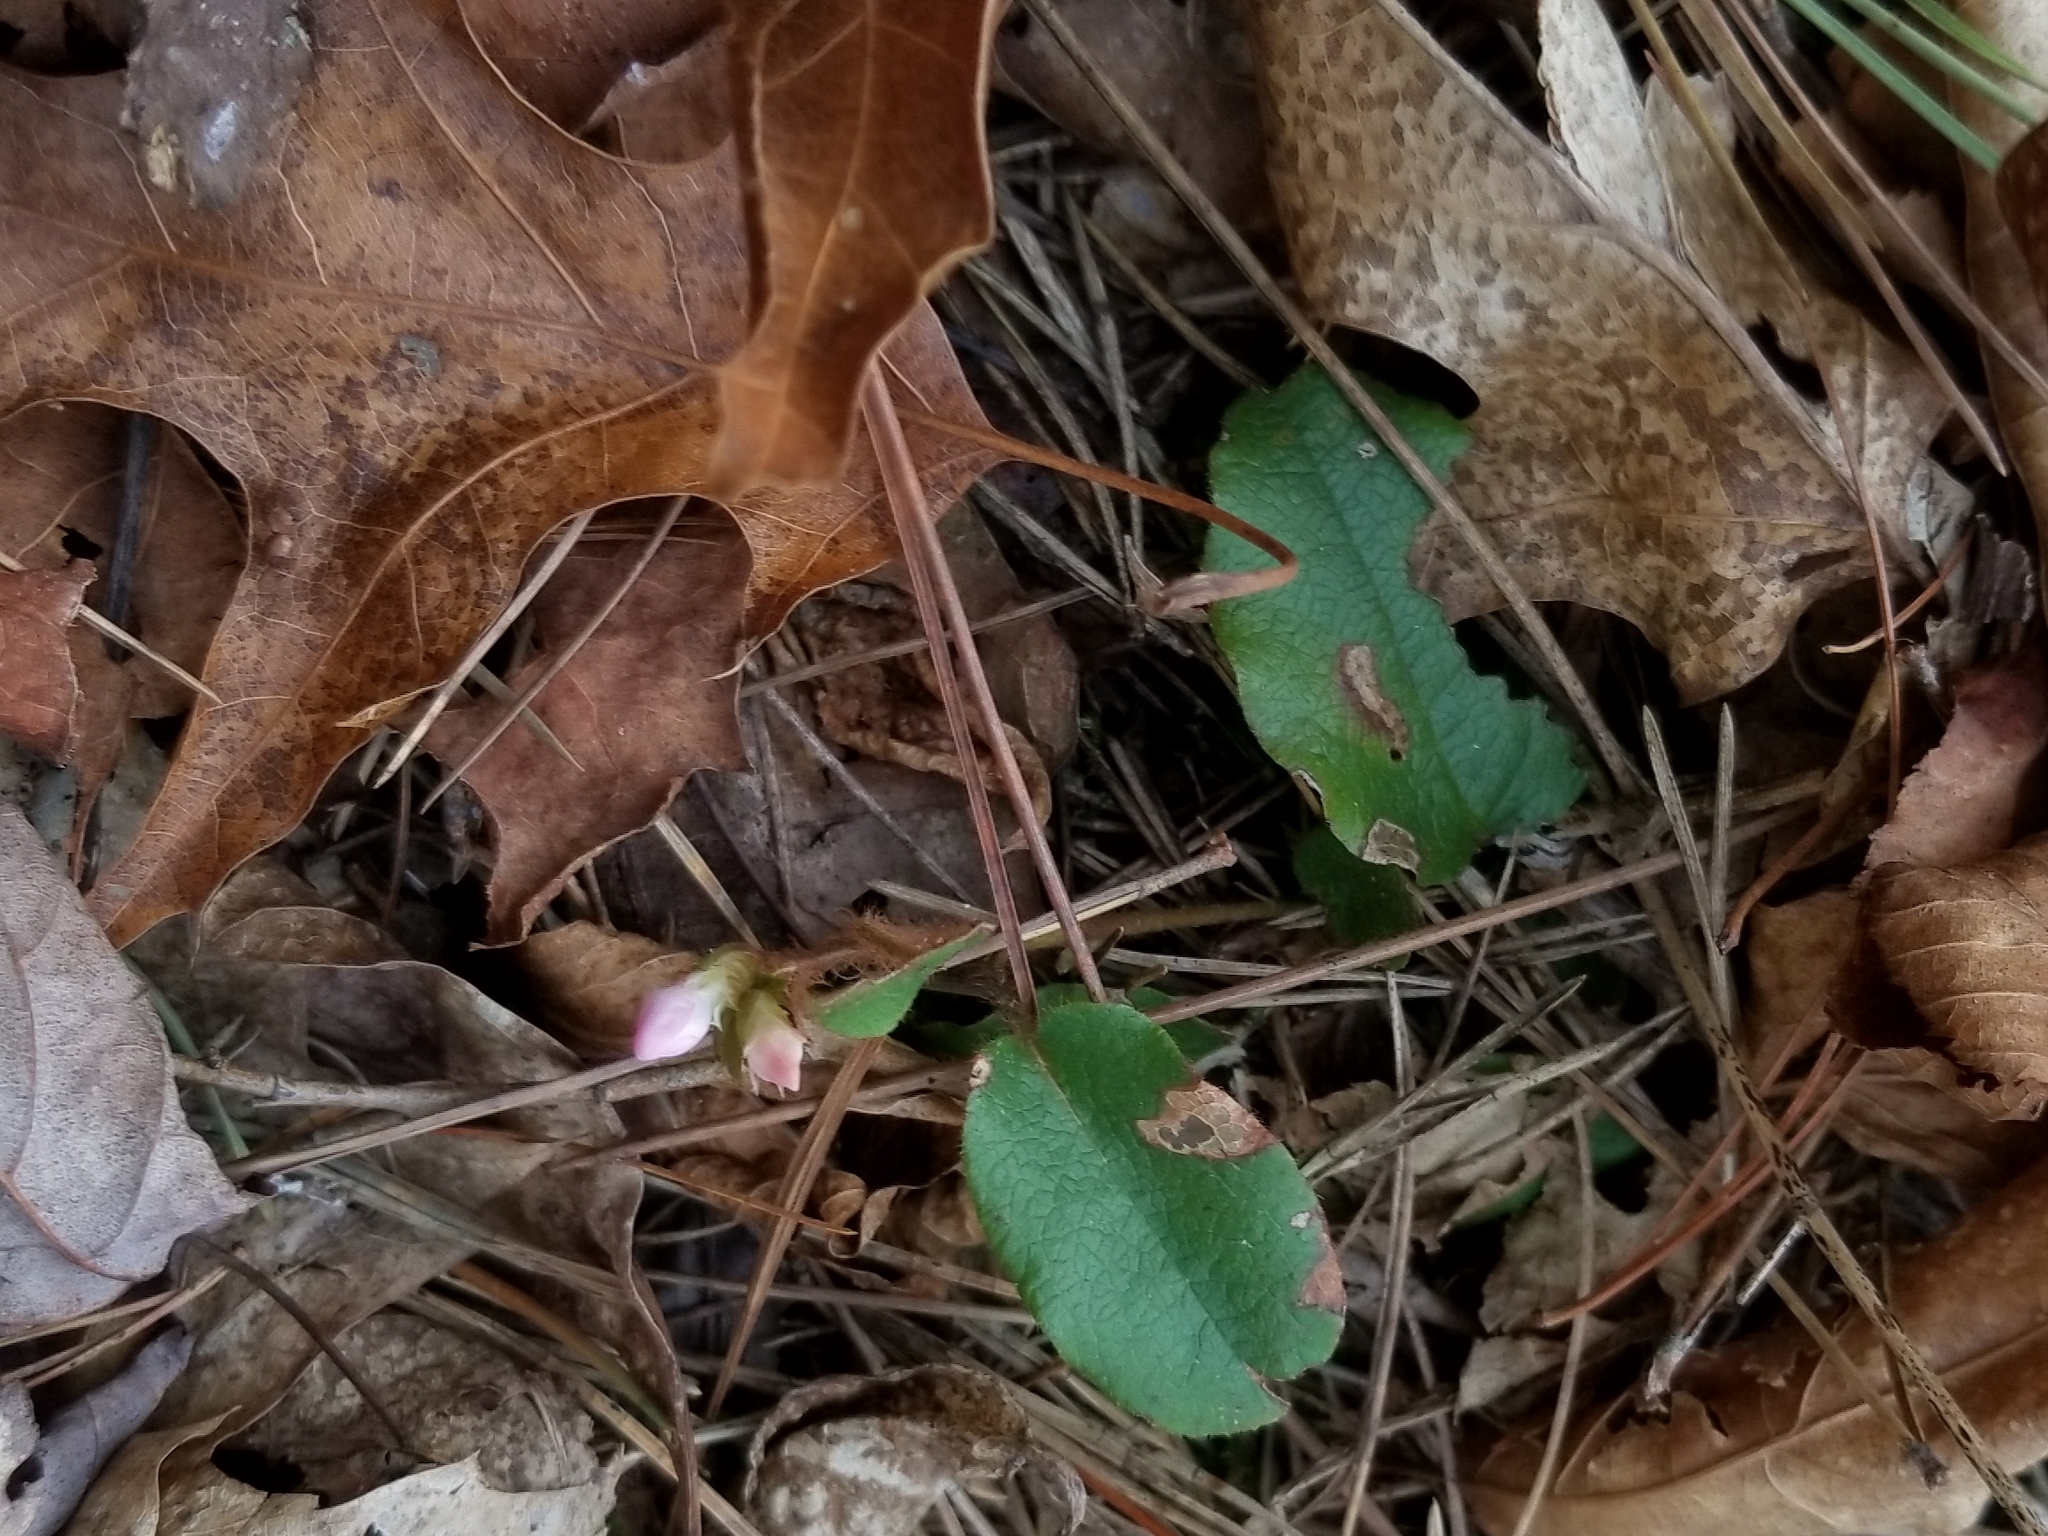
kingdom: Plantae
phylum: Tracheophyta
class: Magnoliopsida
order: Ericales
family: Ericaceae
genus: Epigaea
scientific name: Epigaea repens
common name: Gravelroot
